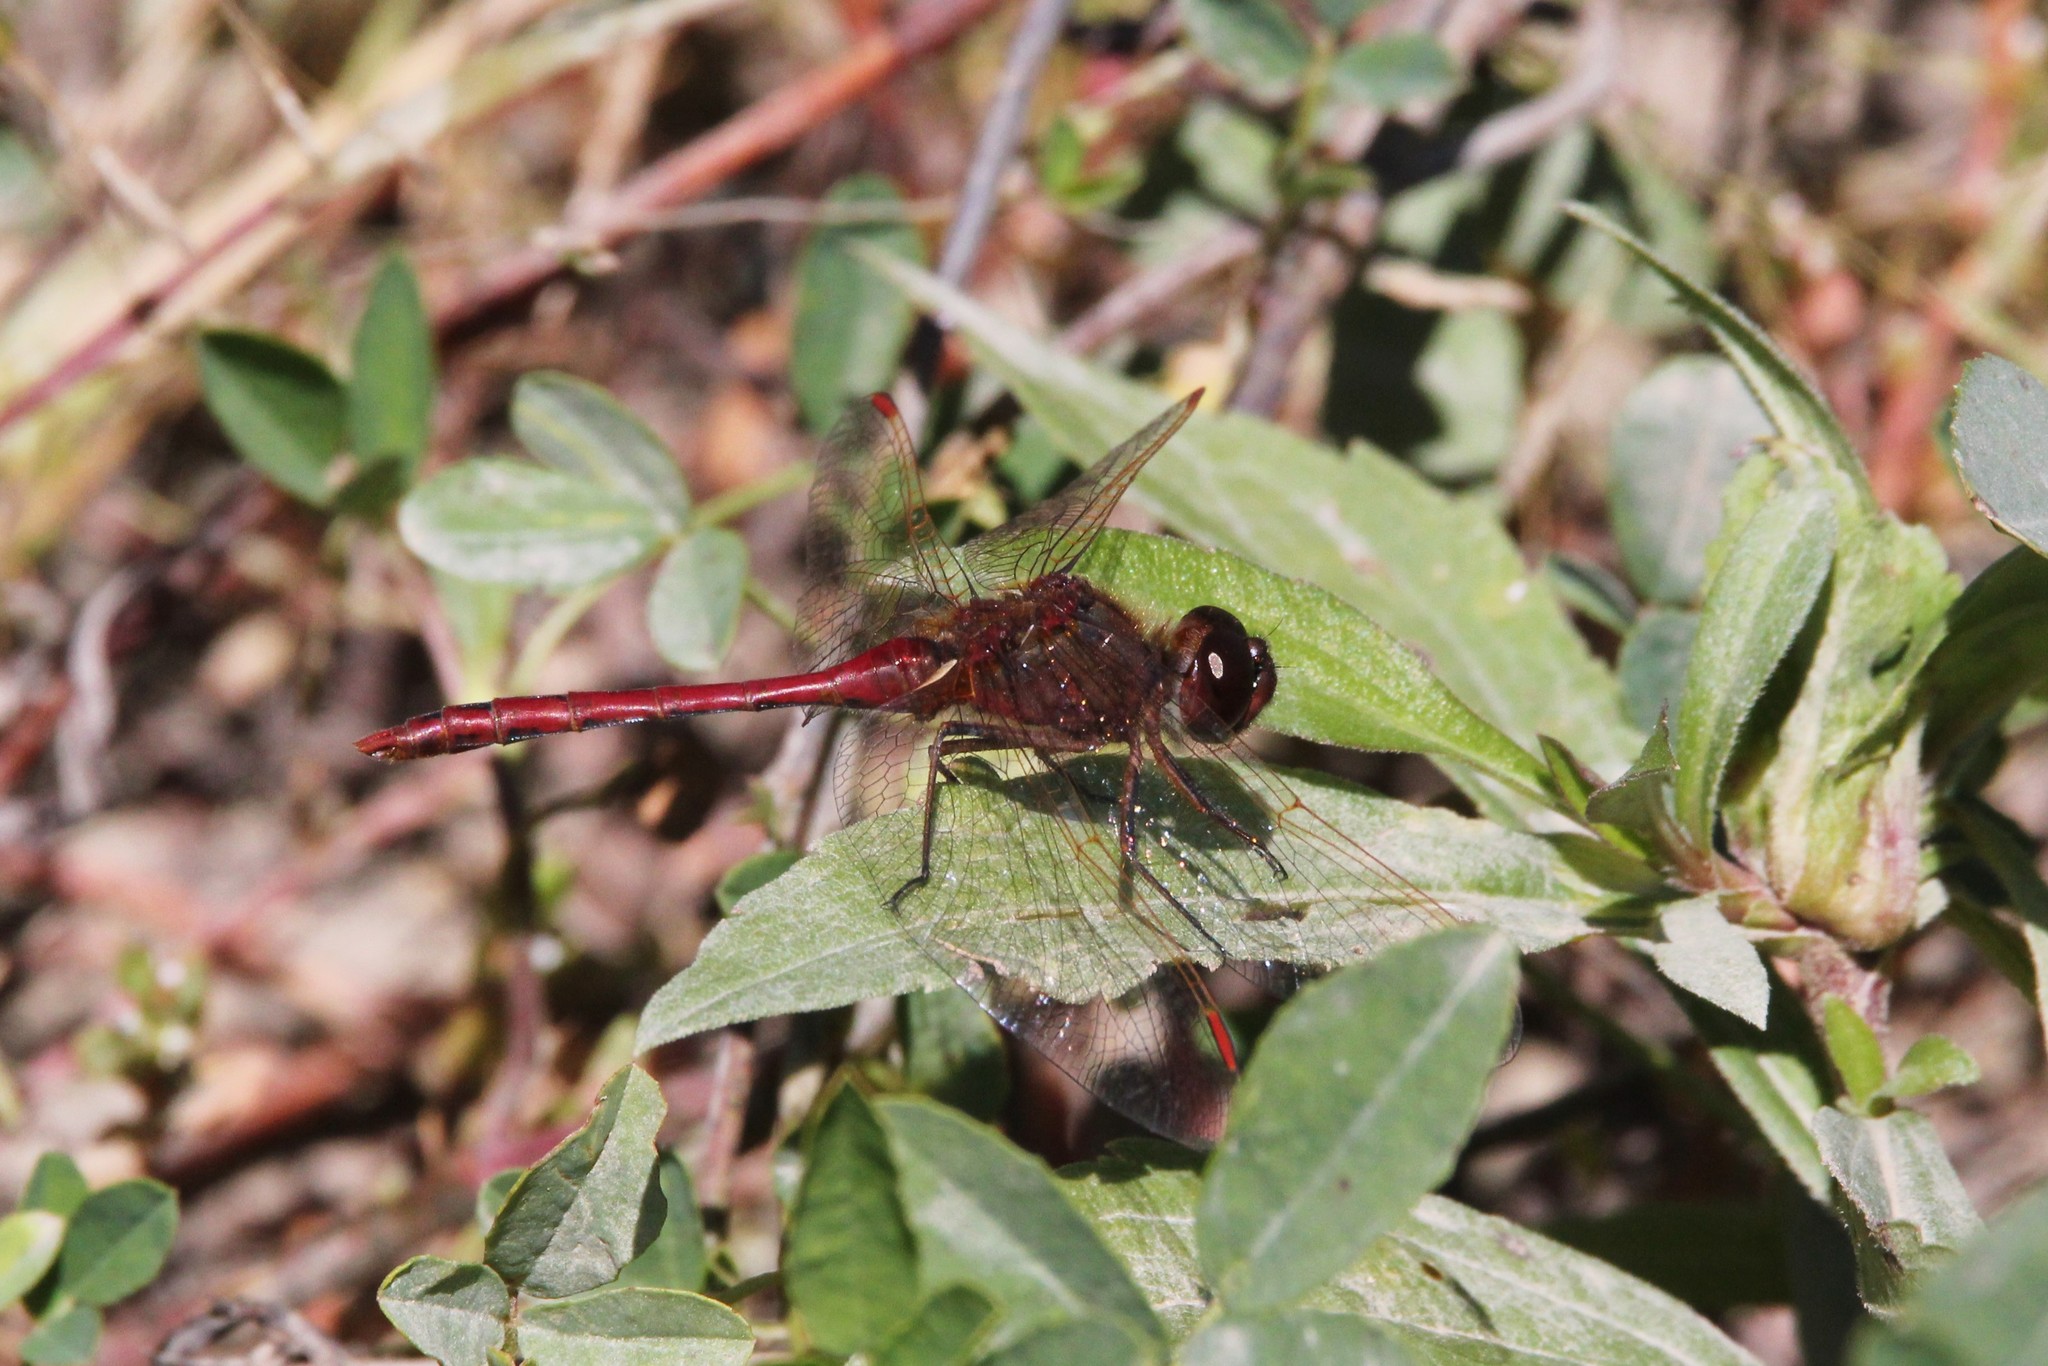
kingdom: Animalia
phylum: Arthropoda
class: Insecta
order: Odonata
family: Libellulidae
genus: Sympetrum
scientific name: Sympetrum costiferum
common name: Saffron-winged meadowhawk
